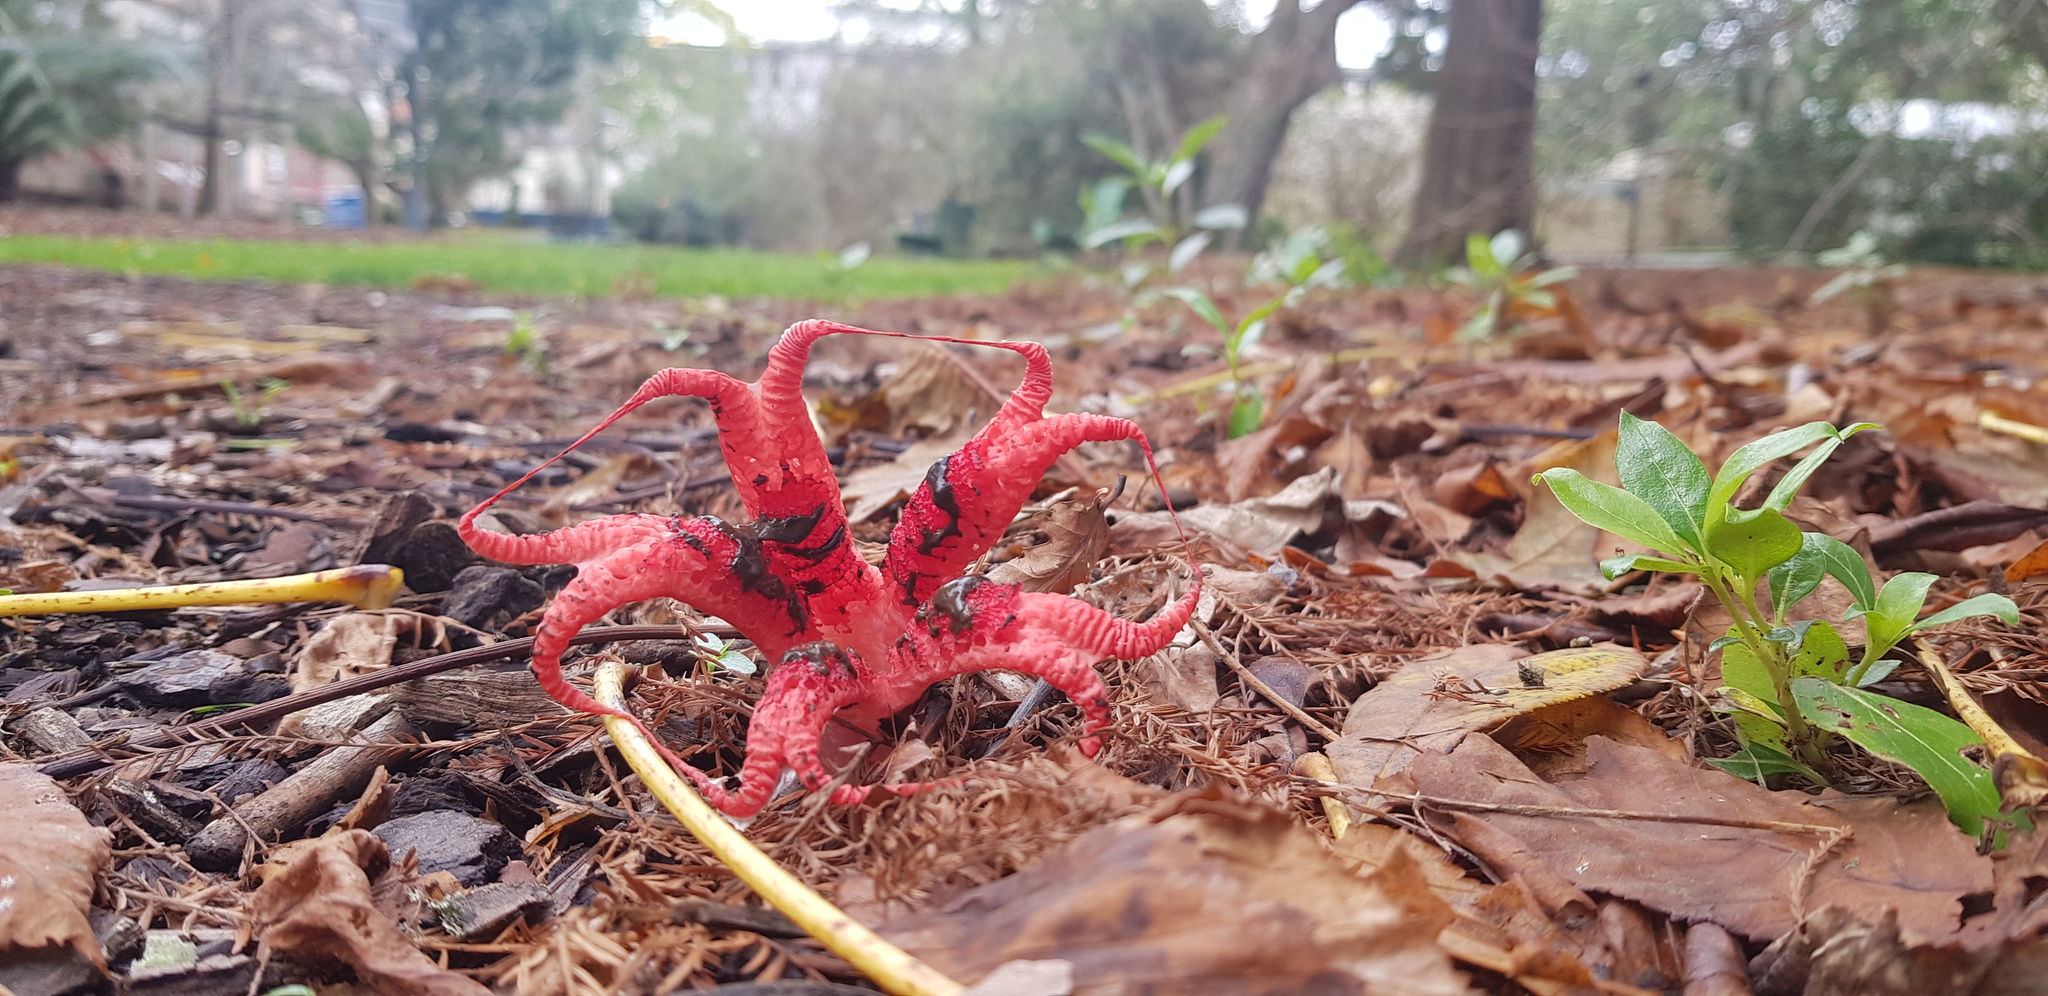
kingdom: Fungi
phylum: Basidiomycota
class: Agaricomycetes
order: Phallales
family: Phallaceae
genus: Clathrus
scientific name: Clathrus archeri
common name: Devil's fingers
